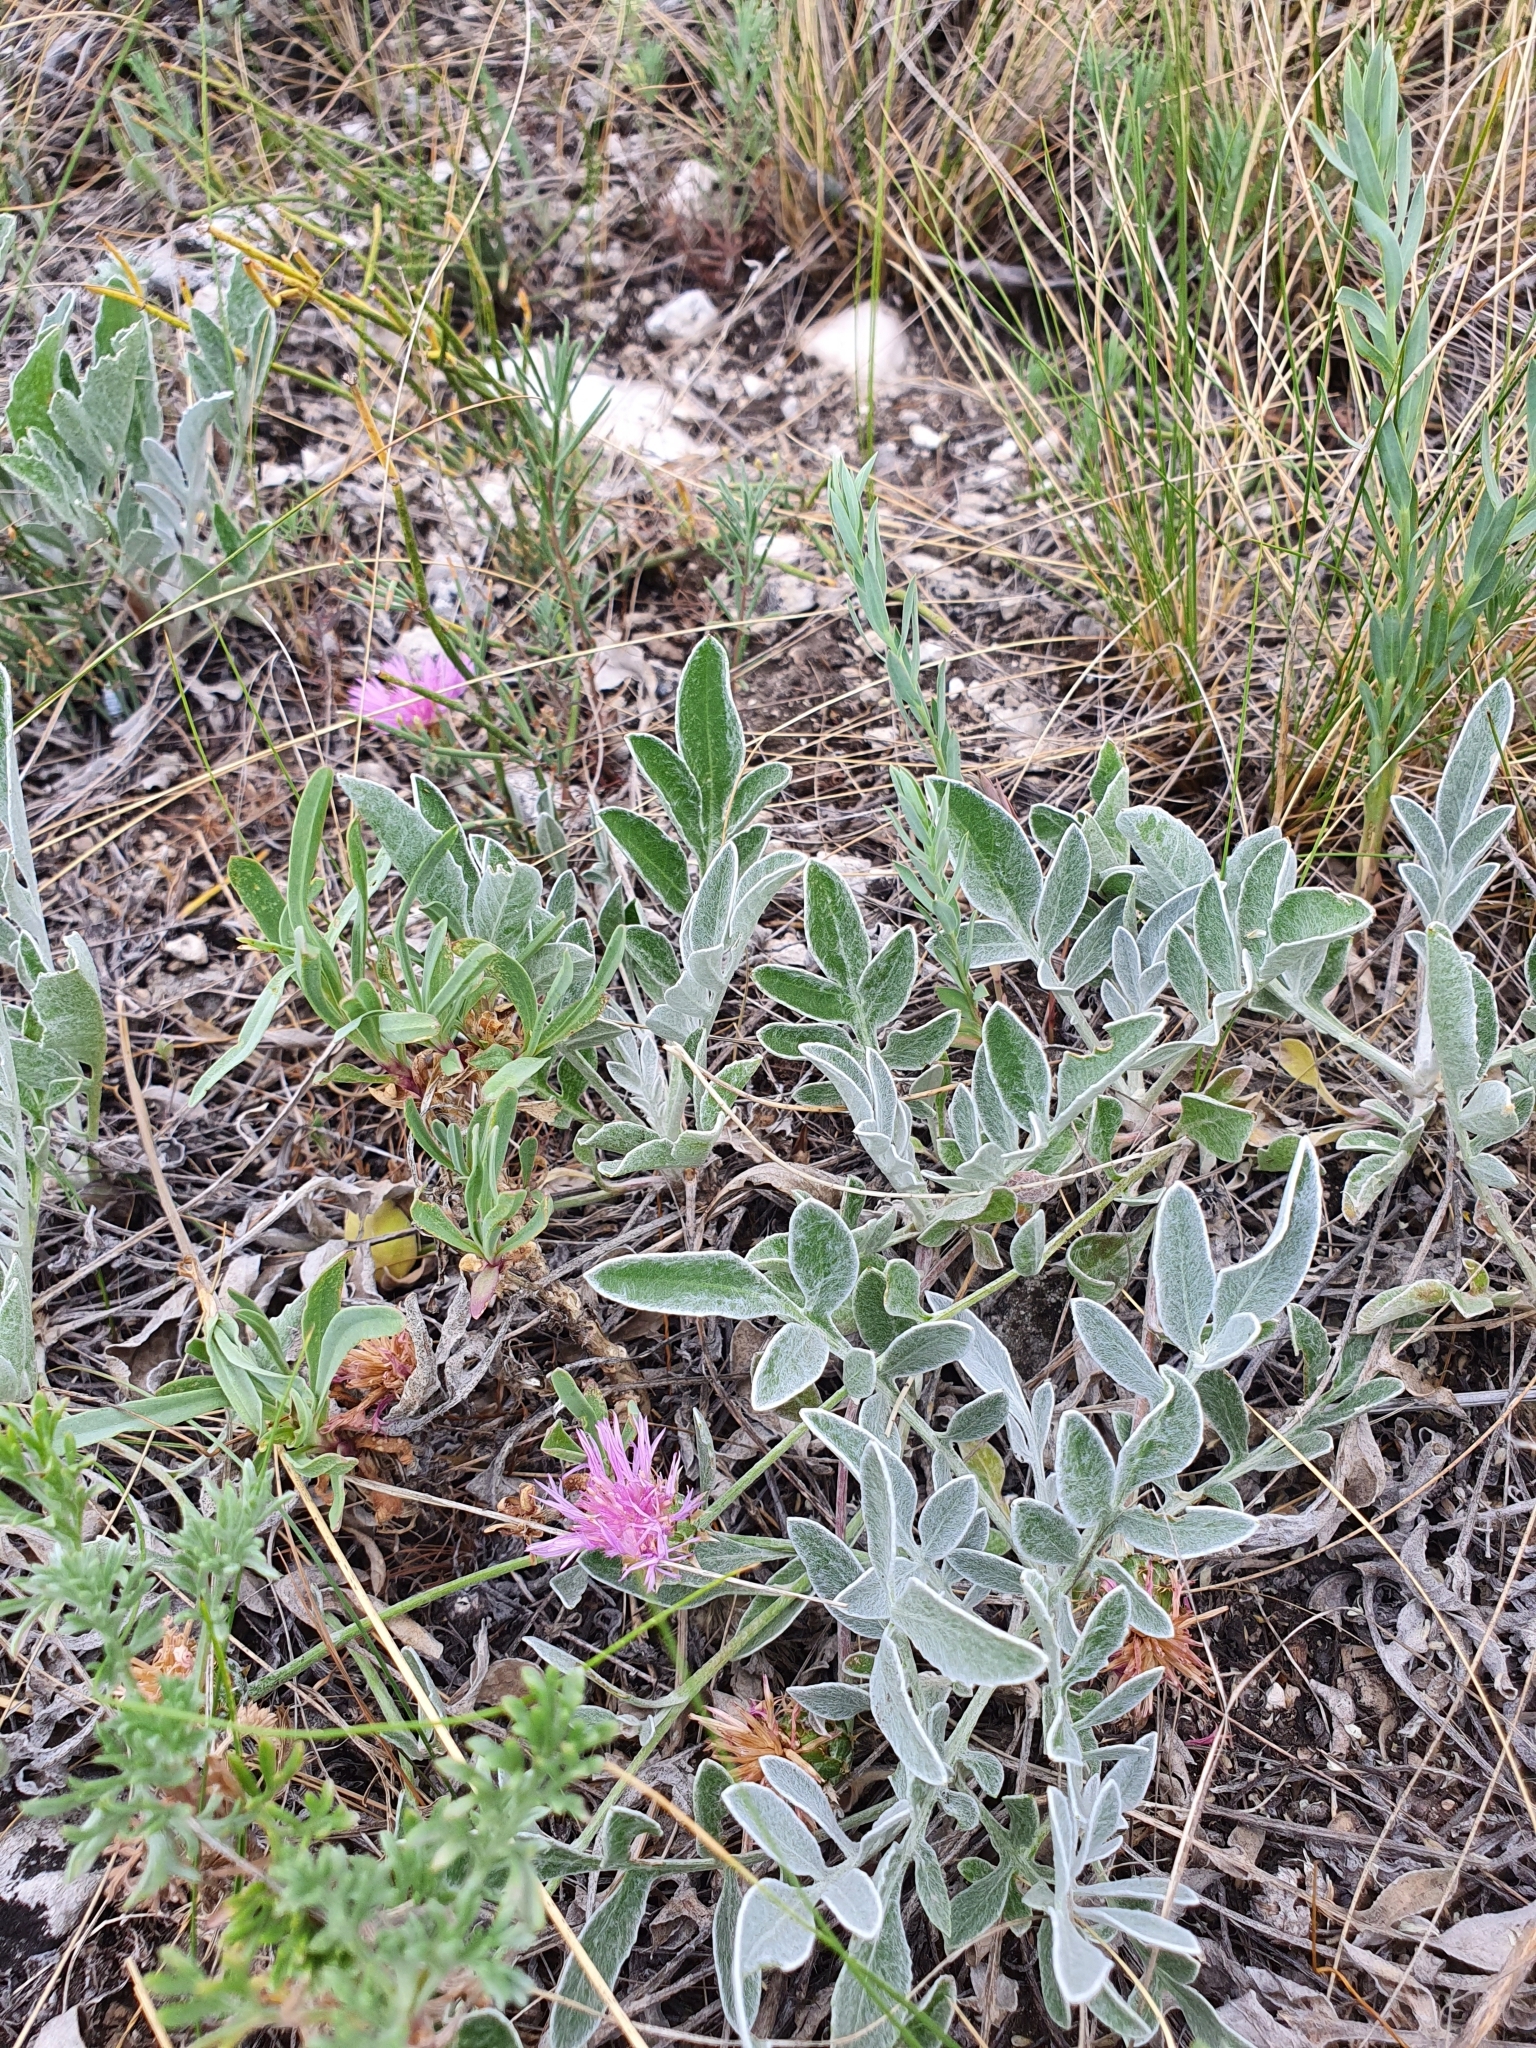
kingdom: Plantae
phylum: Tracheophyta
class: Magnoliopsida
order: Asterales
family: Asteraceae
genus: Psephellus
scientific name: Psephellus marschallianus
